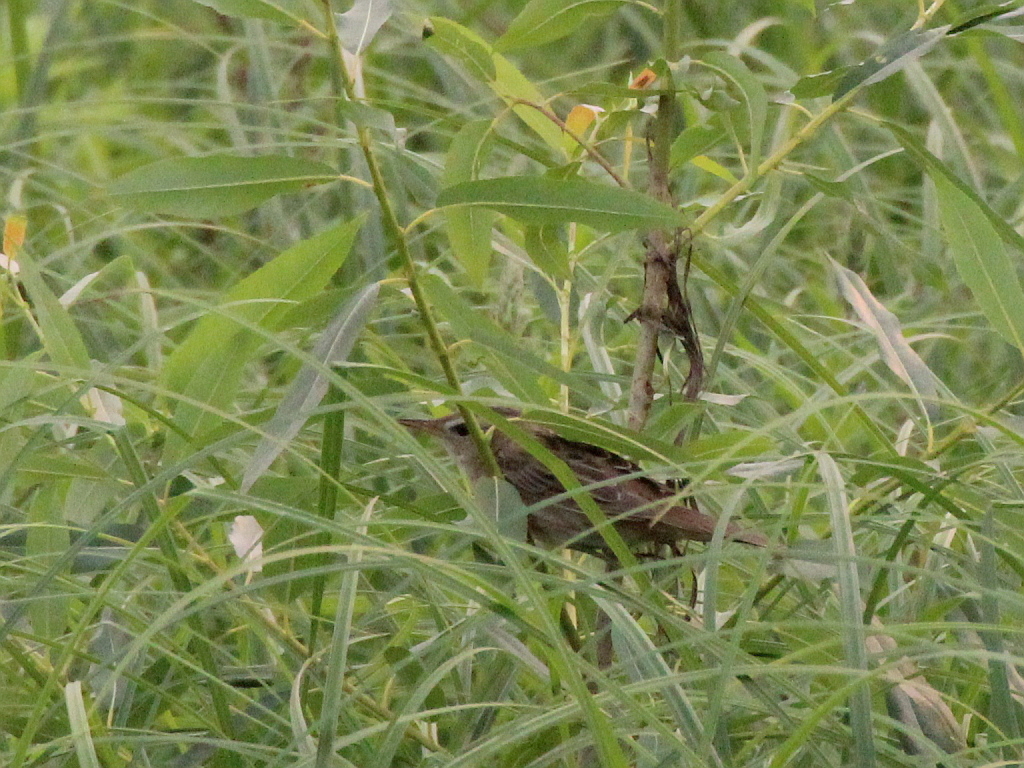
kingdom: Animalia
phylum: Chordata
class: Aves
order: Passeriformes
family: Locustellidae
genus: Locustella
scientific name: Locustella certhiola
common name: Pallas's grasshopper warbler
